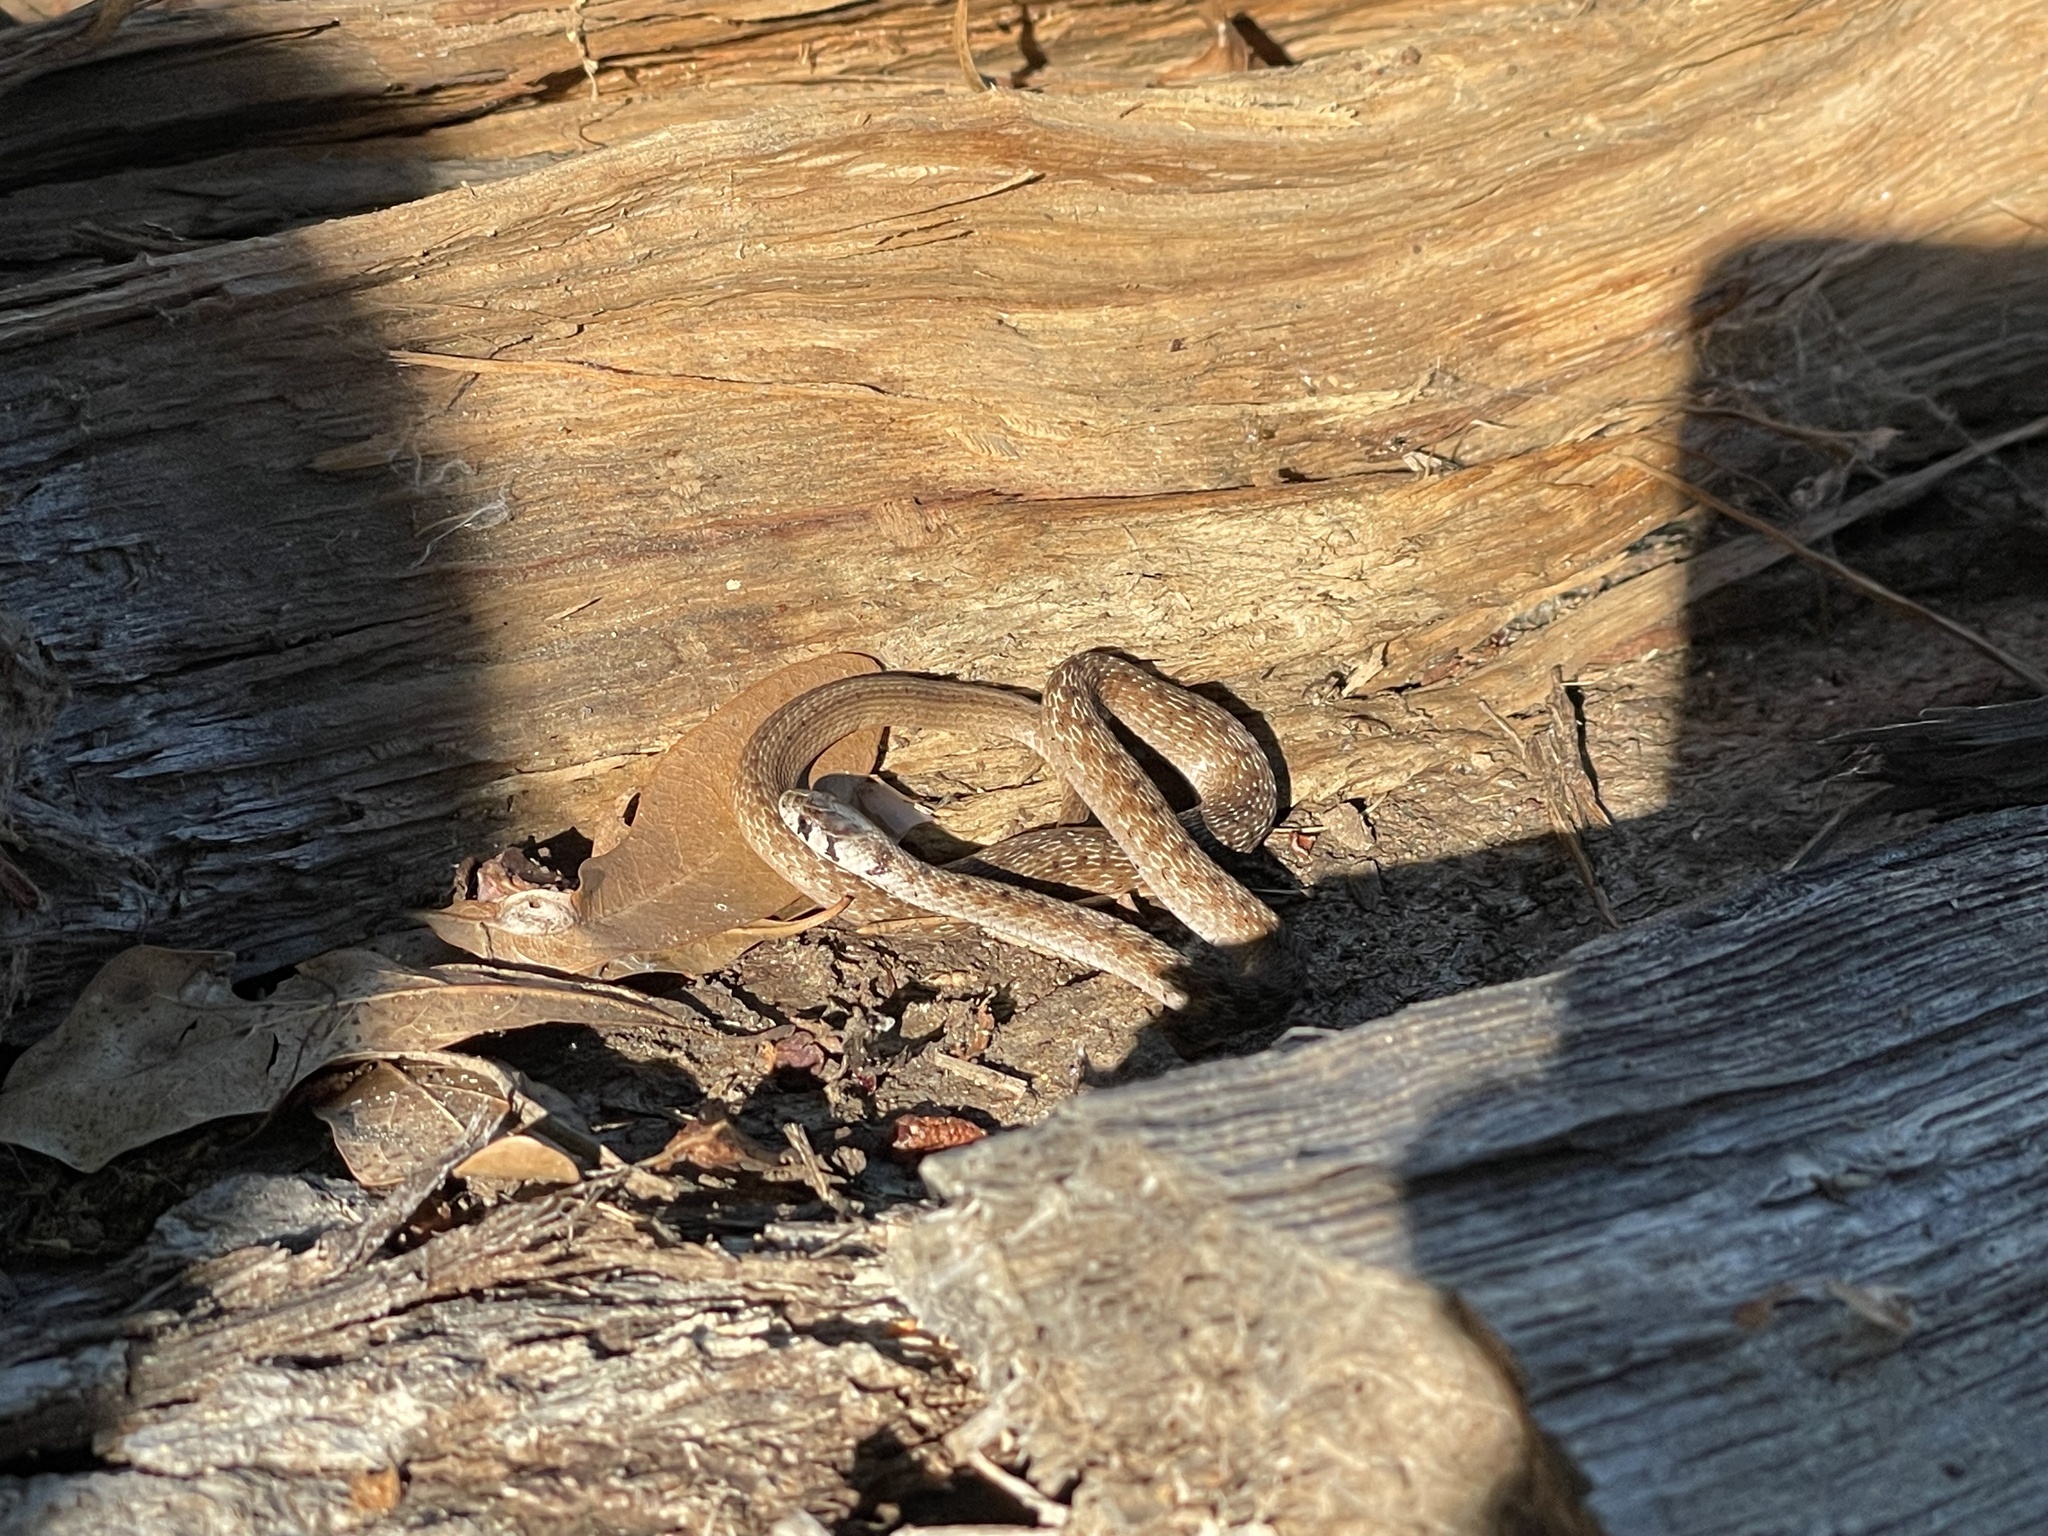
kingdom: Animalia
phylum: Chordata
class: Squamata
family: Colubridae
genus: Storeria
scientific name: Storeria dekayi
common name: (dekay’s) brown snake
